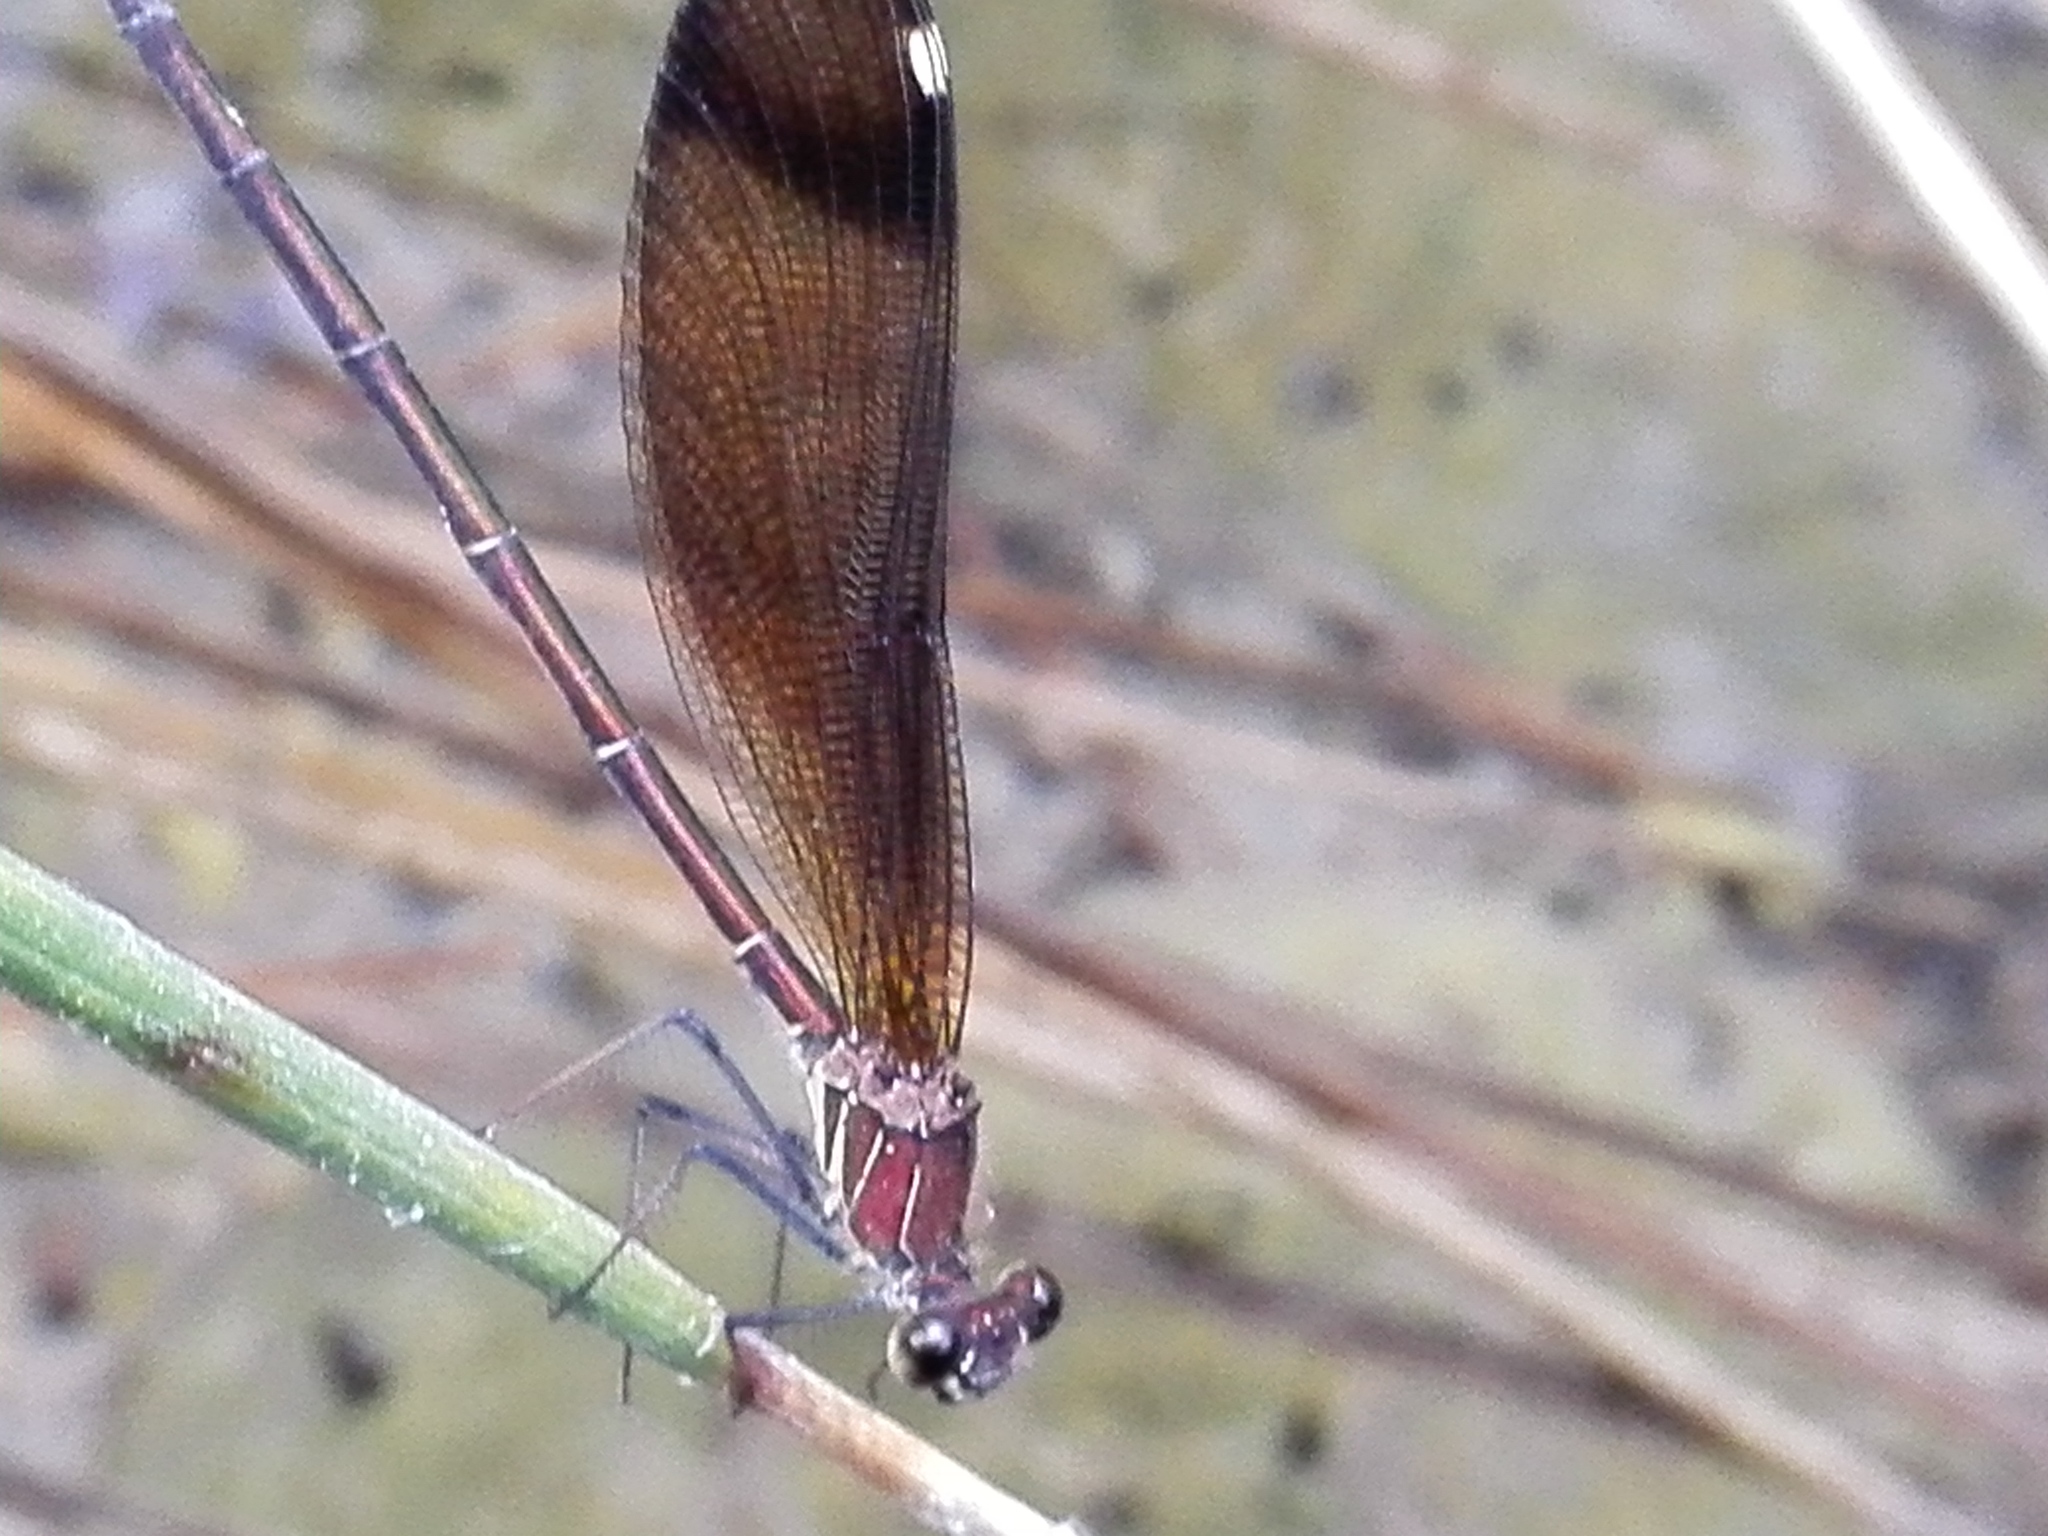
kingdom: Animalia
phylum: Arthropoda
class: Insecta
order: Odonata
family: Calopterygidae
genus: Calopteryx
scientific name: Calopteryx haemorrhoidalis
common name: Copper demoiselle
